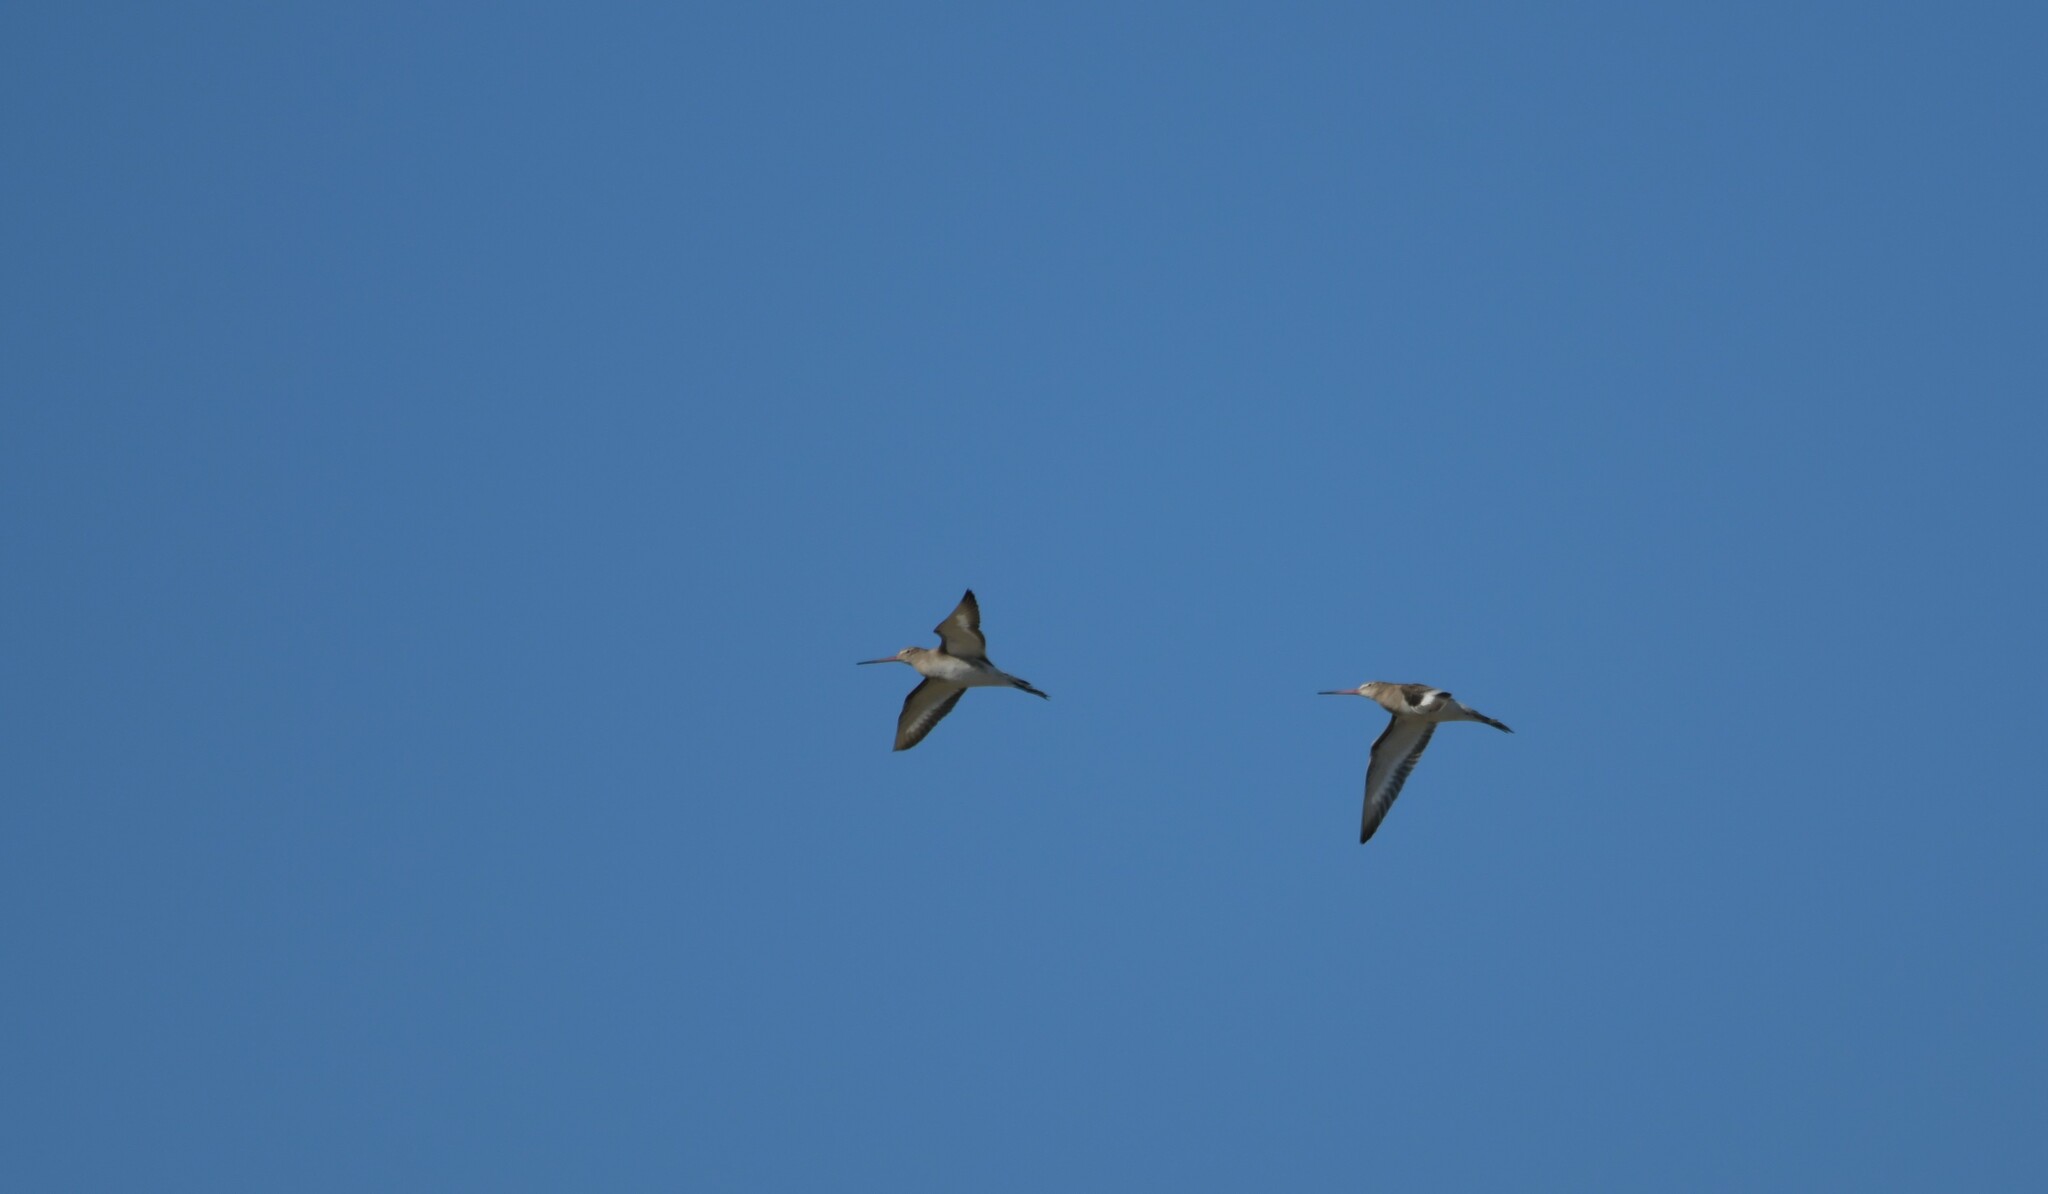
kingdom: Animalia
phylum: Chordata
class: Aves
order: Charadriiformes
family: Scolopacidae
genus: Limosa
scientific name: Limosa limosa
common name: Black-tailed godwit
